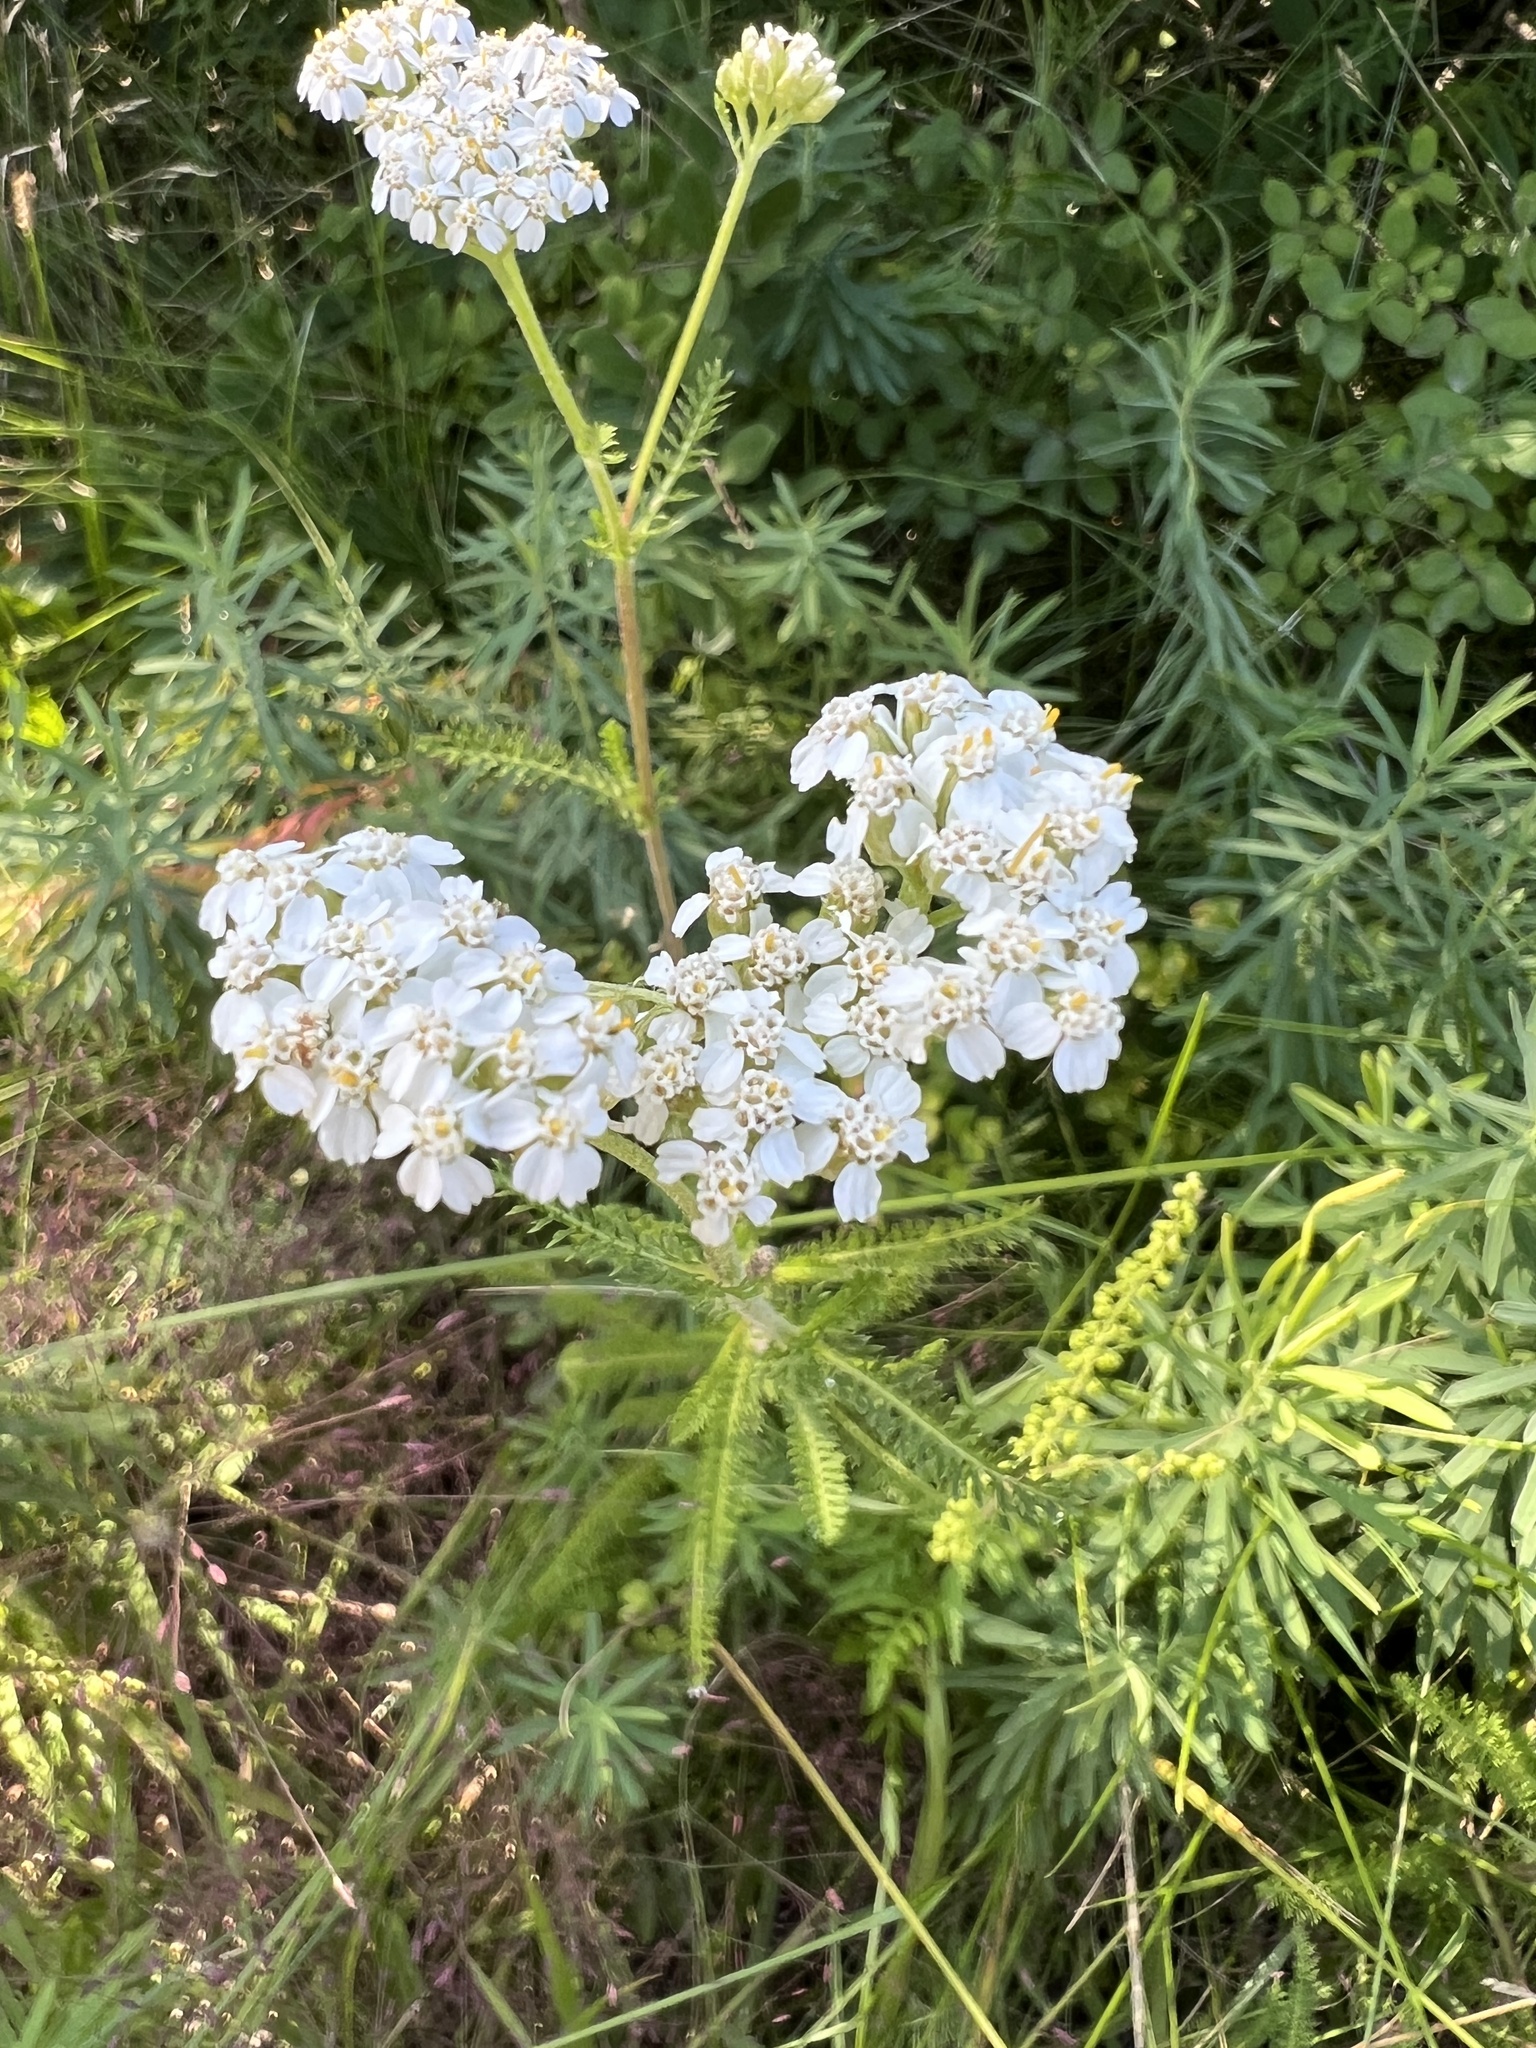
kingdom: Plantae
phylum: Tracheophyta
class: Magnoliopsida
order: Asterales
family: Asteraceae
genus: Achillea
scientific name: Achillea millefolium
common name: Yarrow
